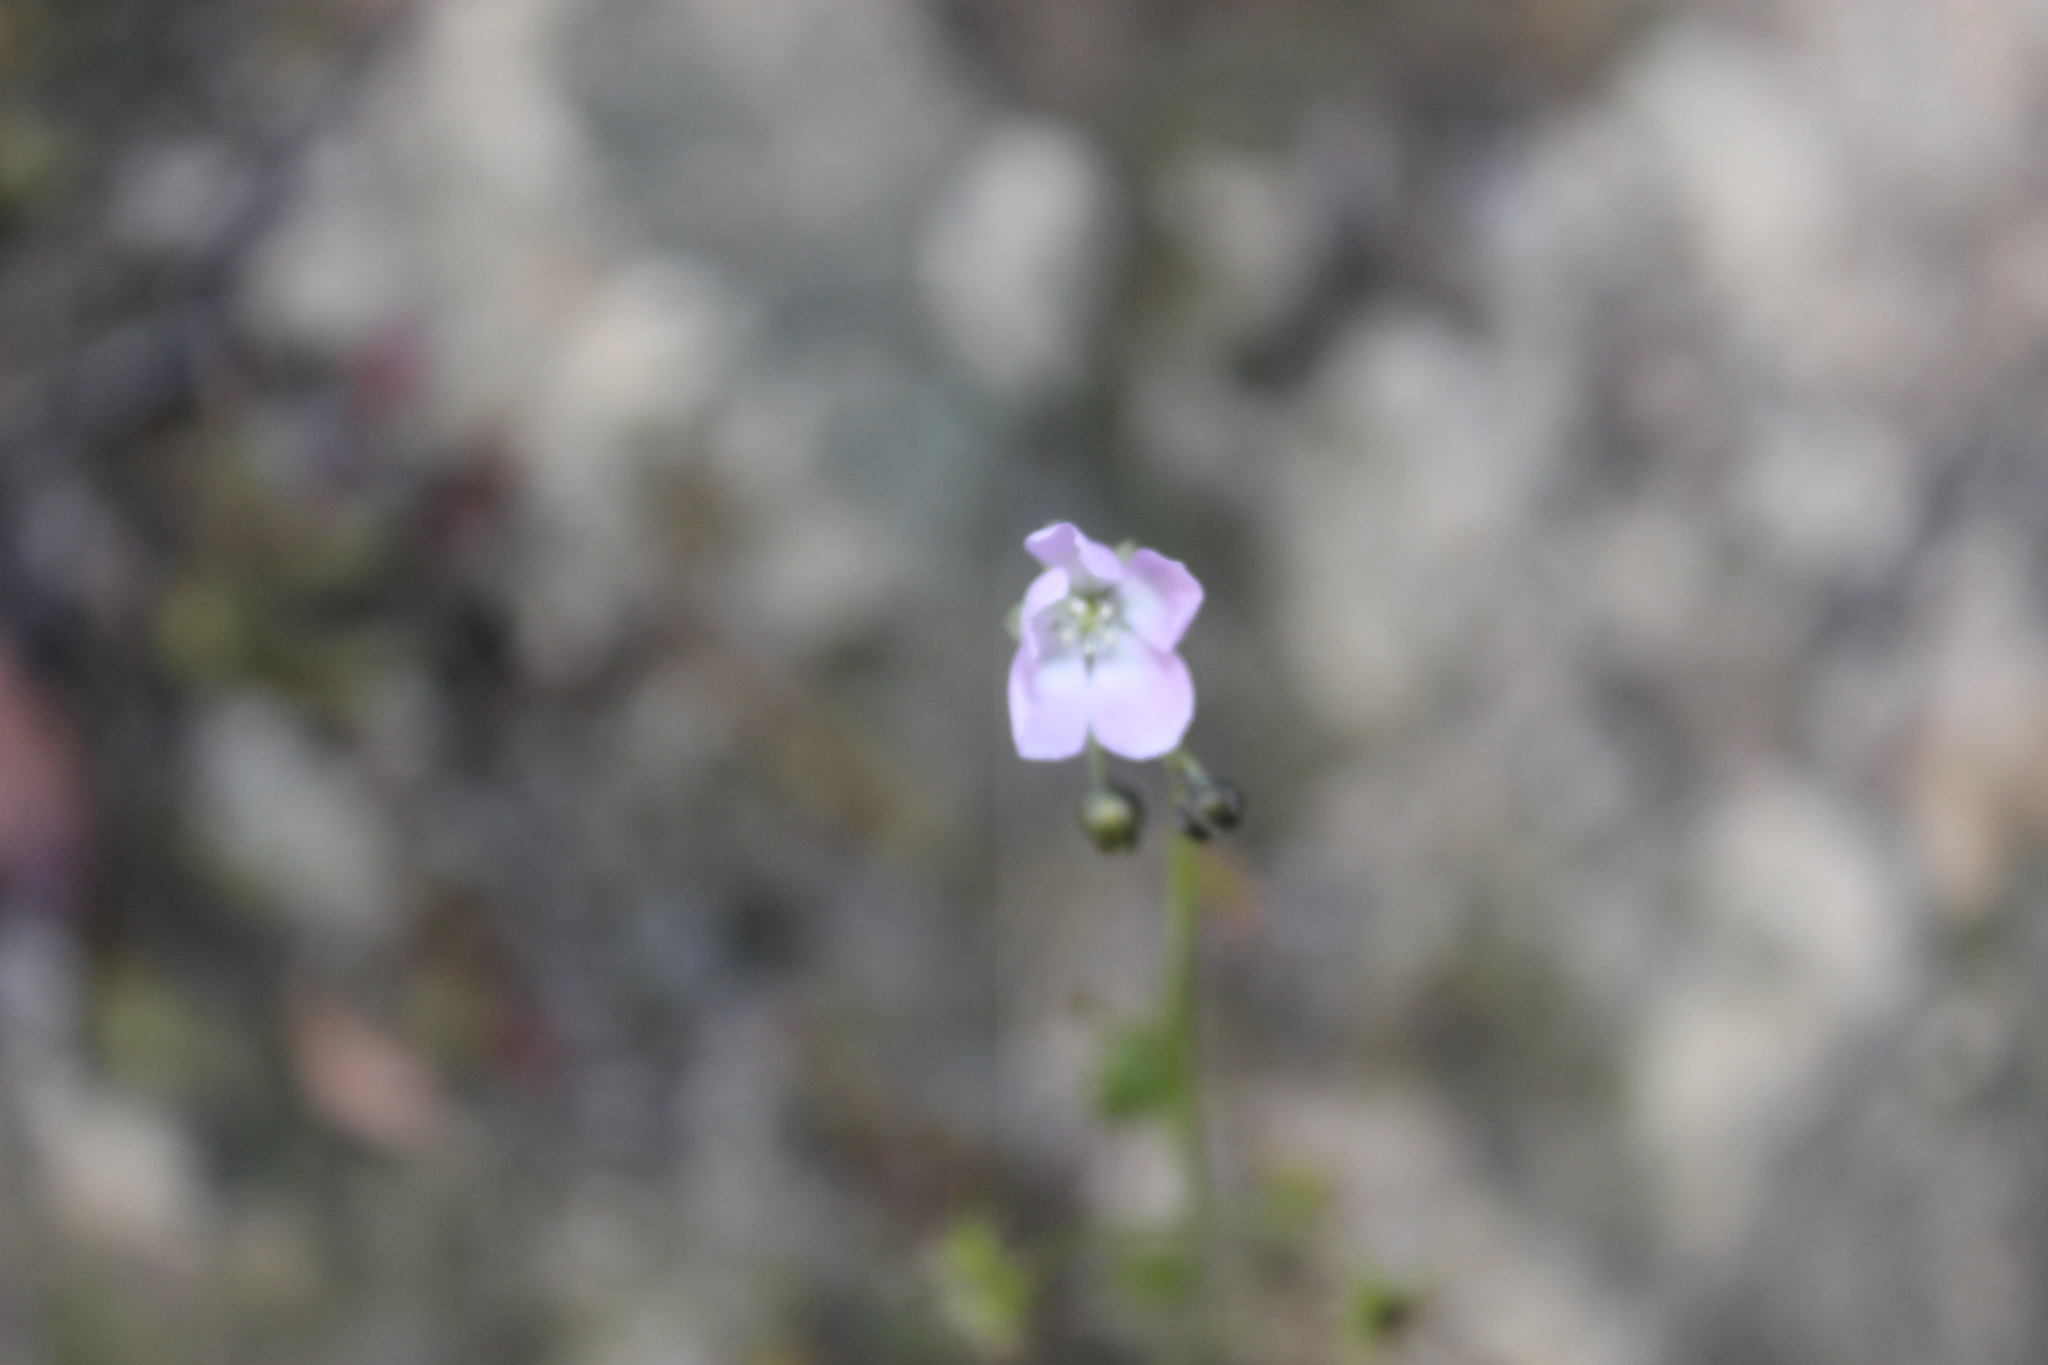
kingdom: Plantae
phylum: Tracheophyta
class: Magnoliopsida
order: Caryophyllales
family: Droseraceae
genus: Drosera
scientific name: Drosera peltata
